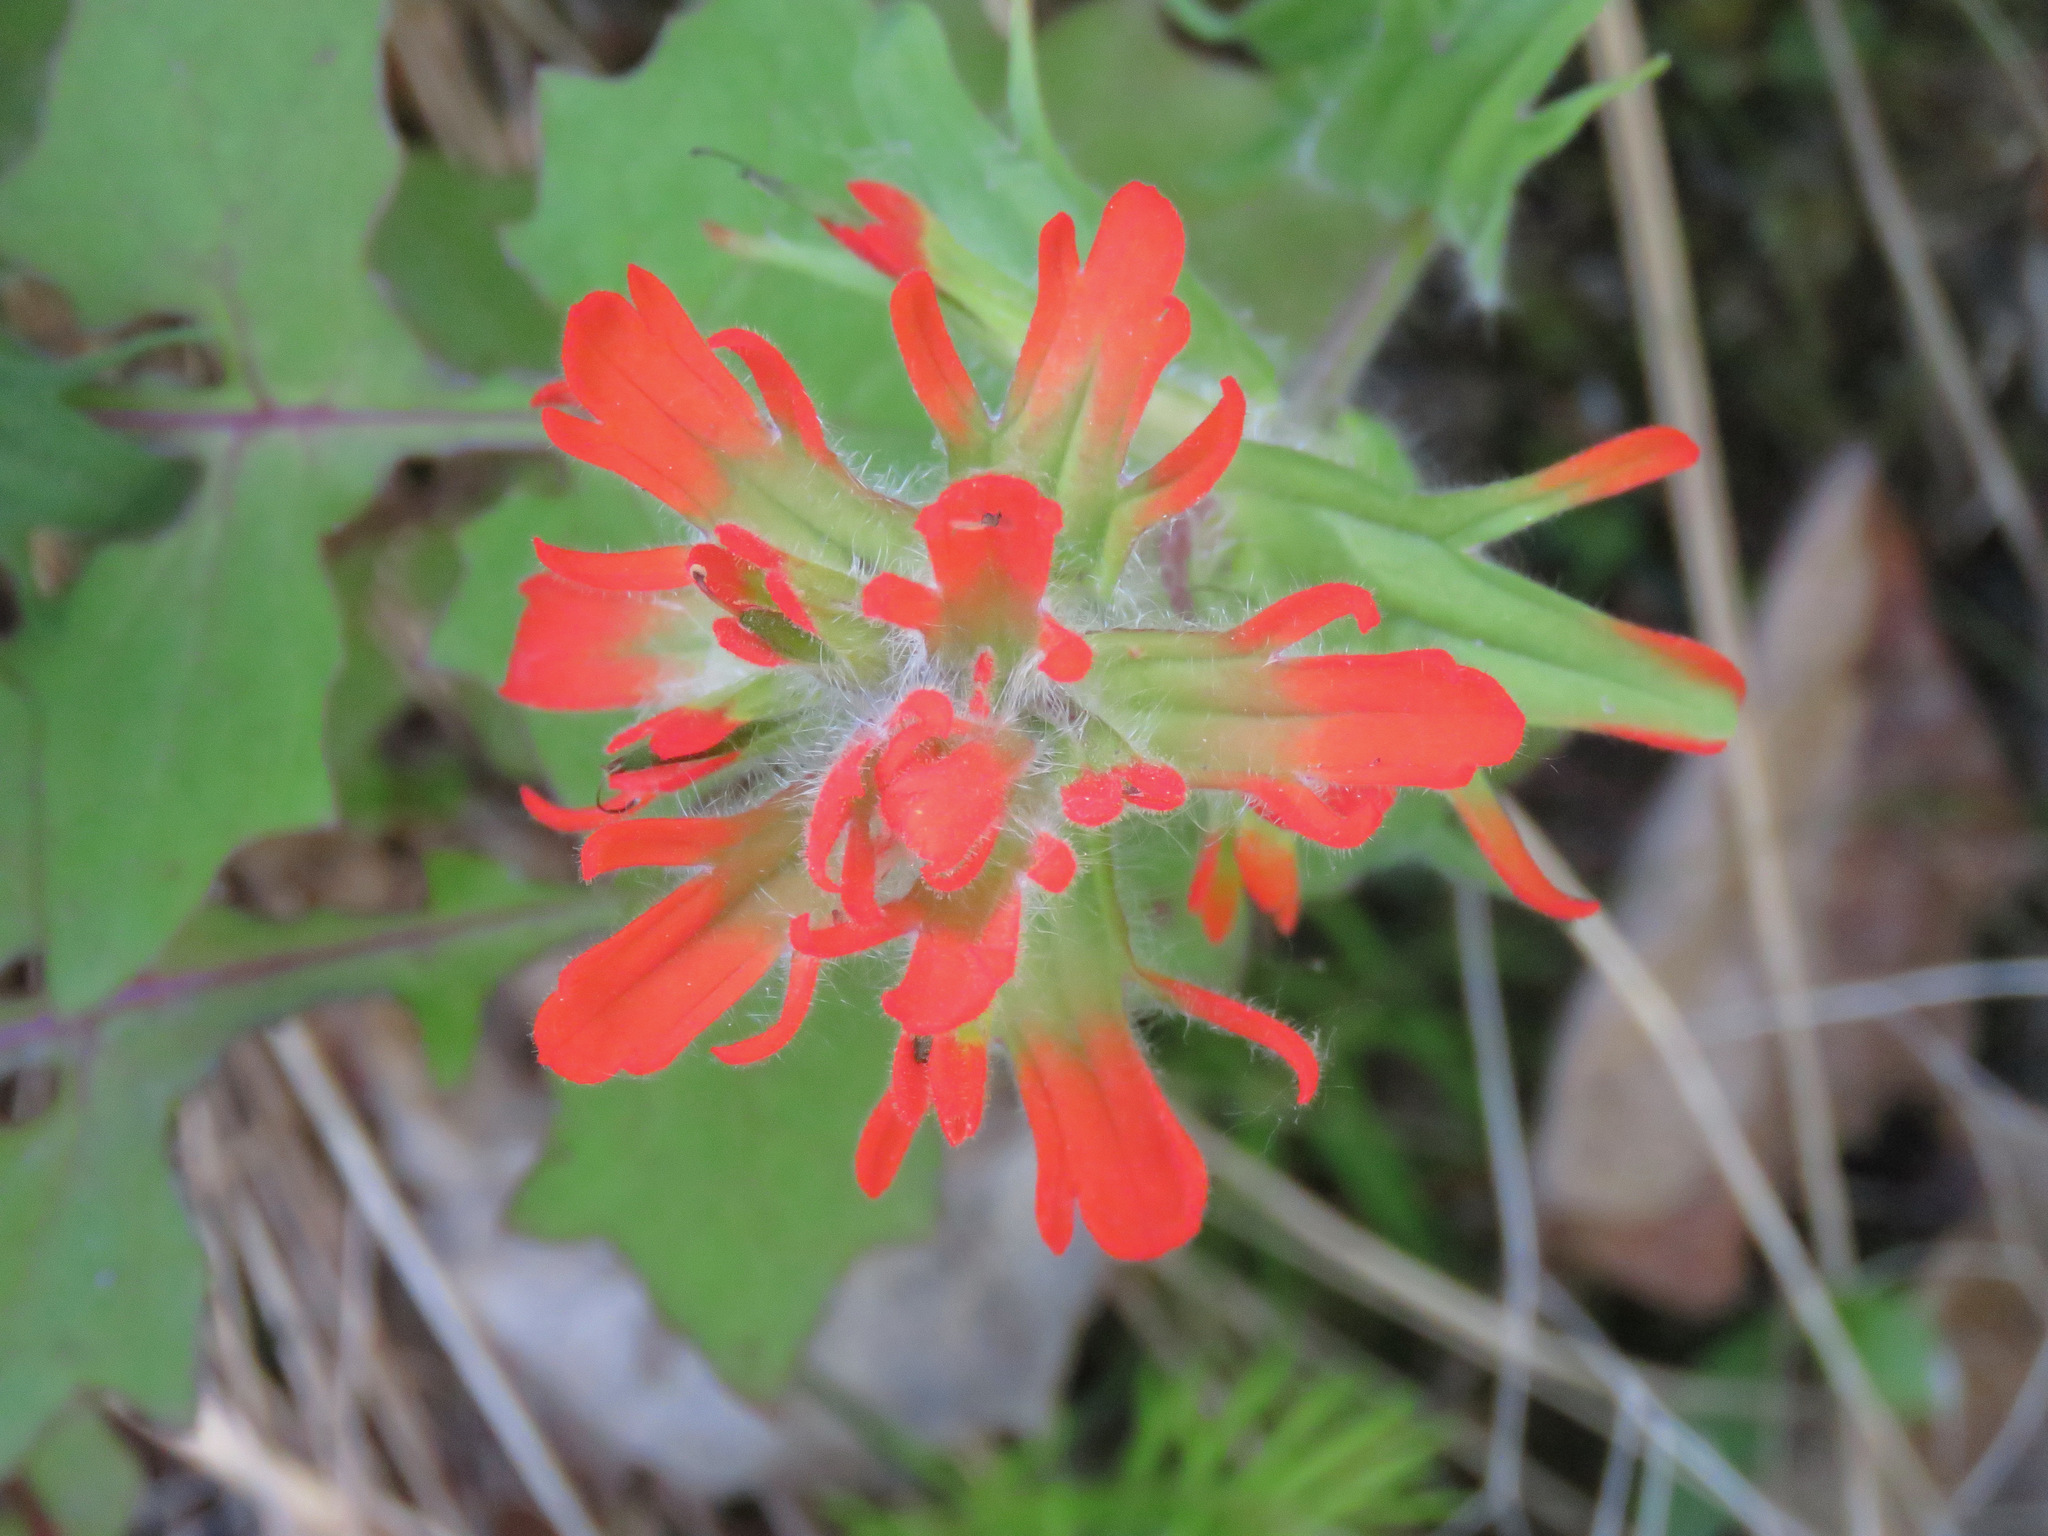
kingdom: Plantae
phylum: Tracheophyta
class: Magnoliopsida
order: Lamiales
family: Orobanchaceae
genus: Castilleja
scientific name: Castilleja hispida
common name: Bristly paintbrush
